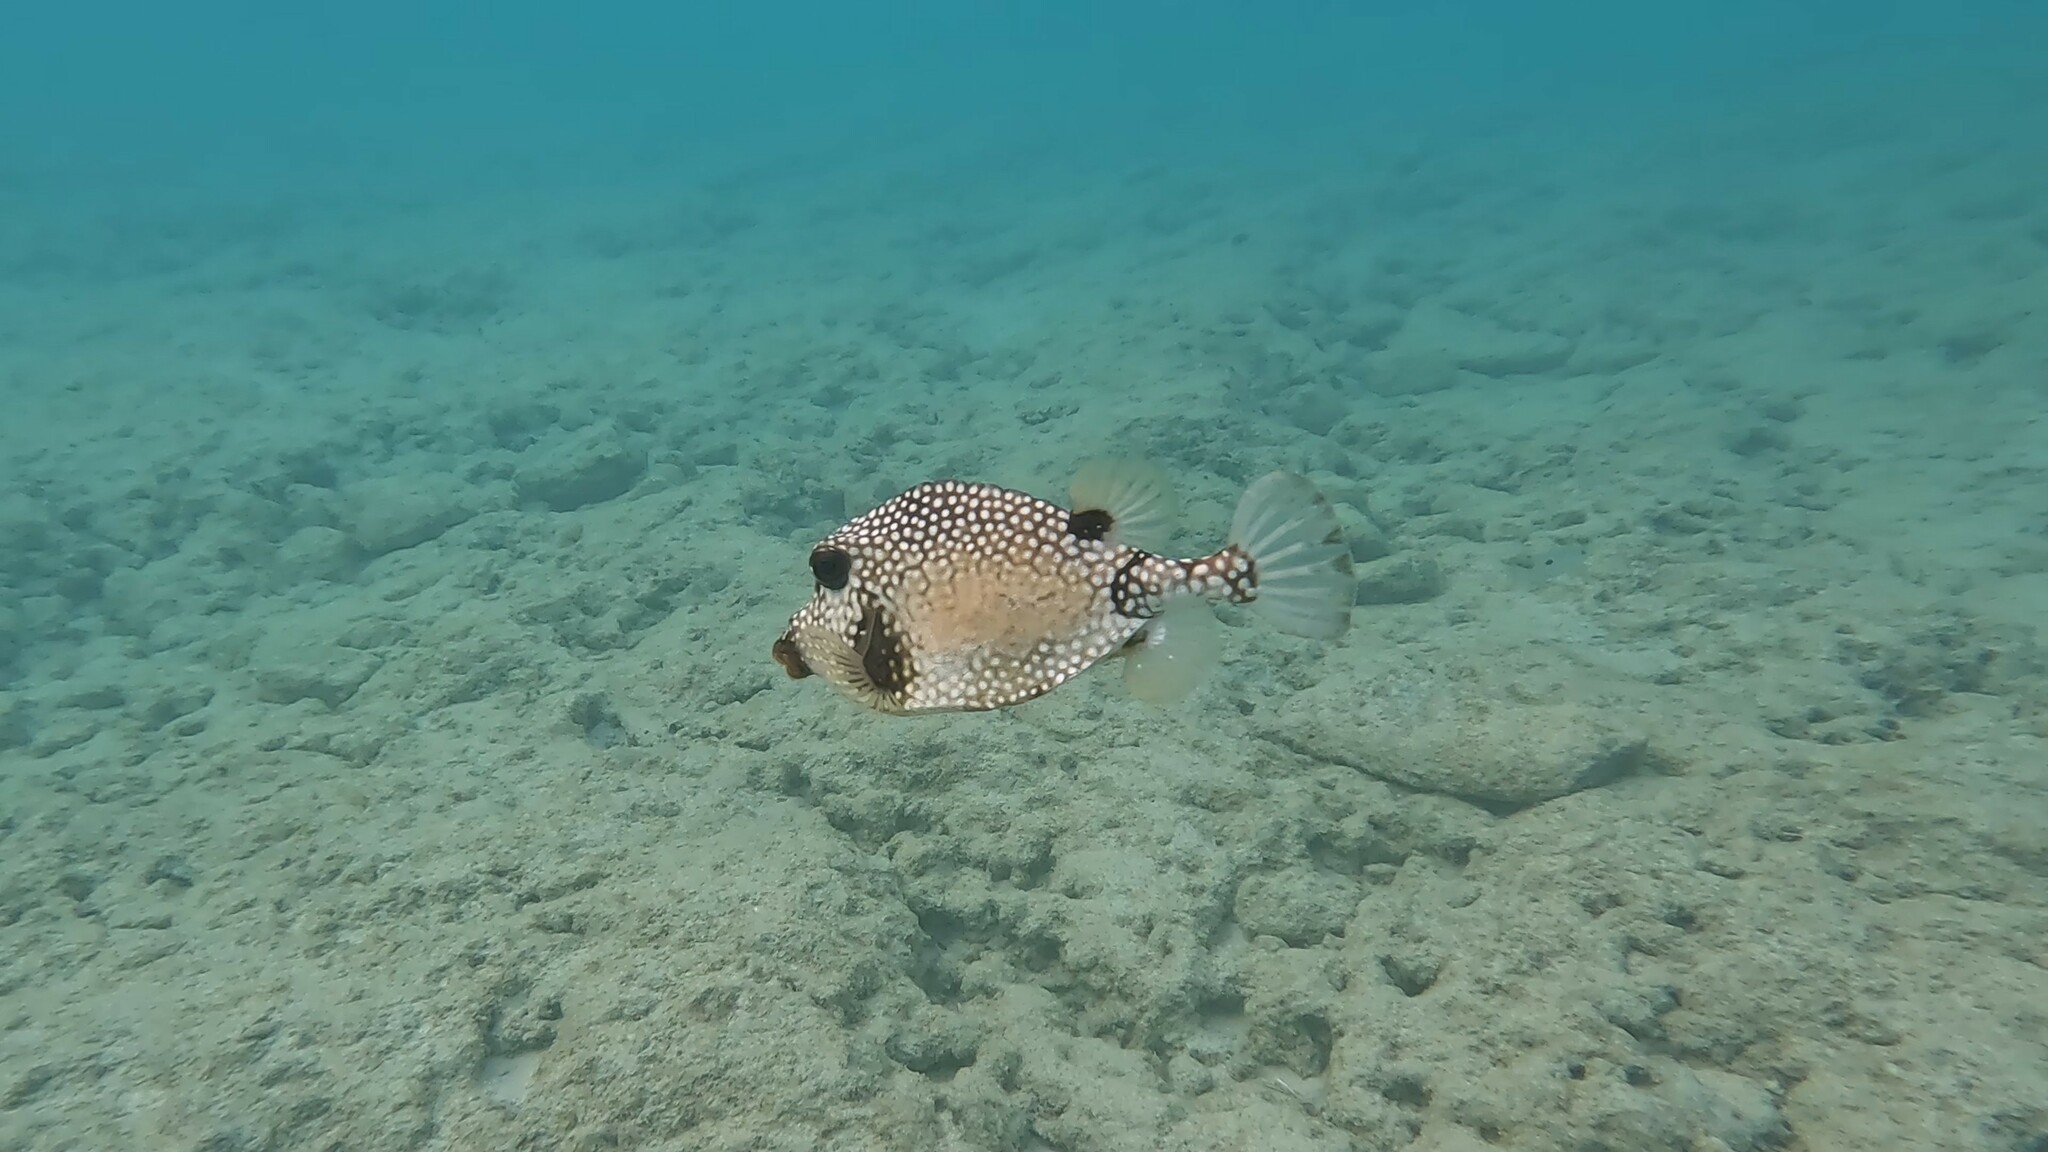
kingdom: Animalia
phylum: Chordata
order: Tetraodontiformes
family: Ostraciidae
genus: Lactophrys
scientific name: Lactophrys triqueter
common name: Smooth trunkfish
